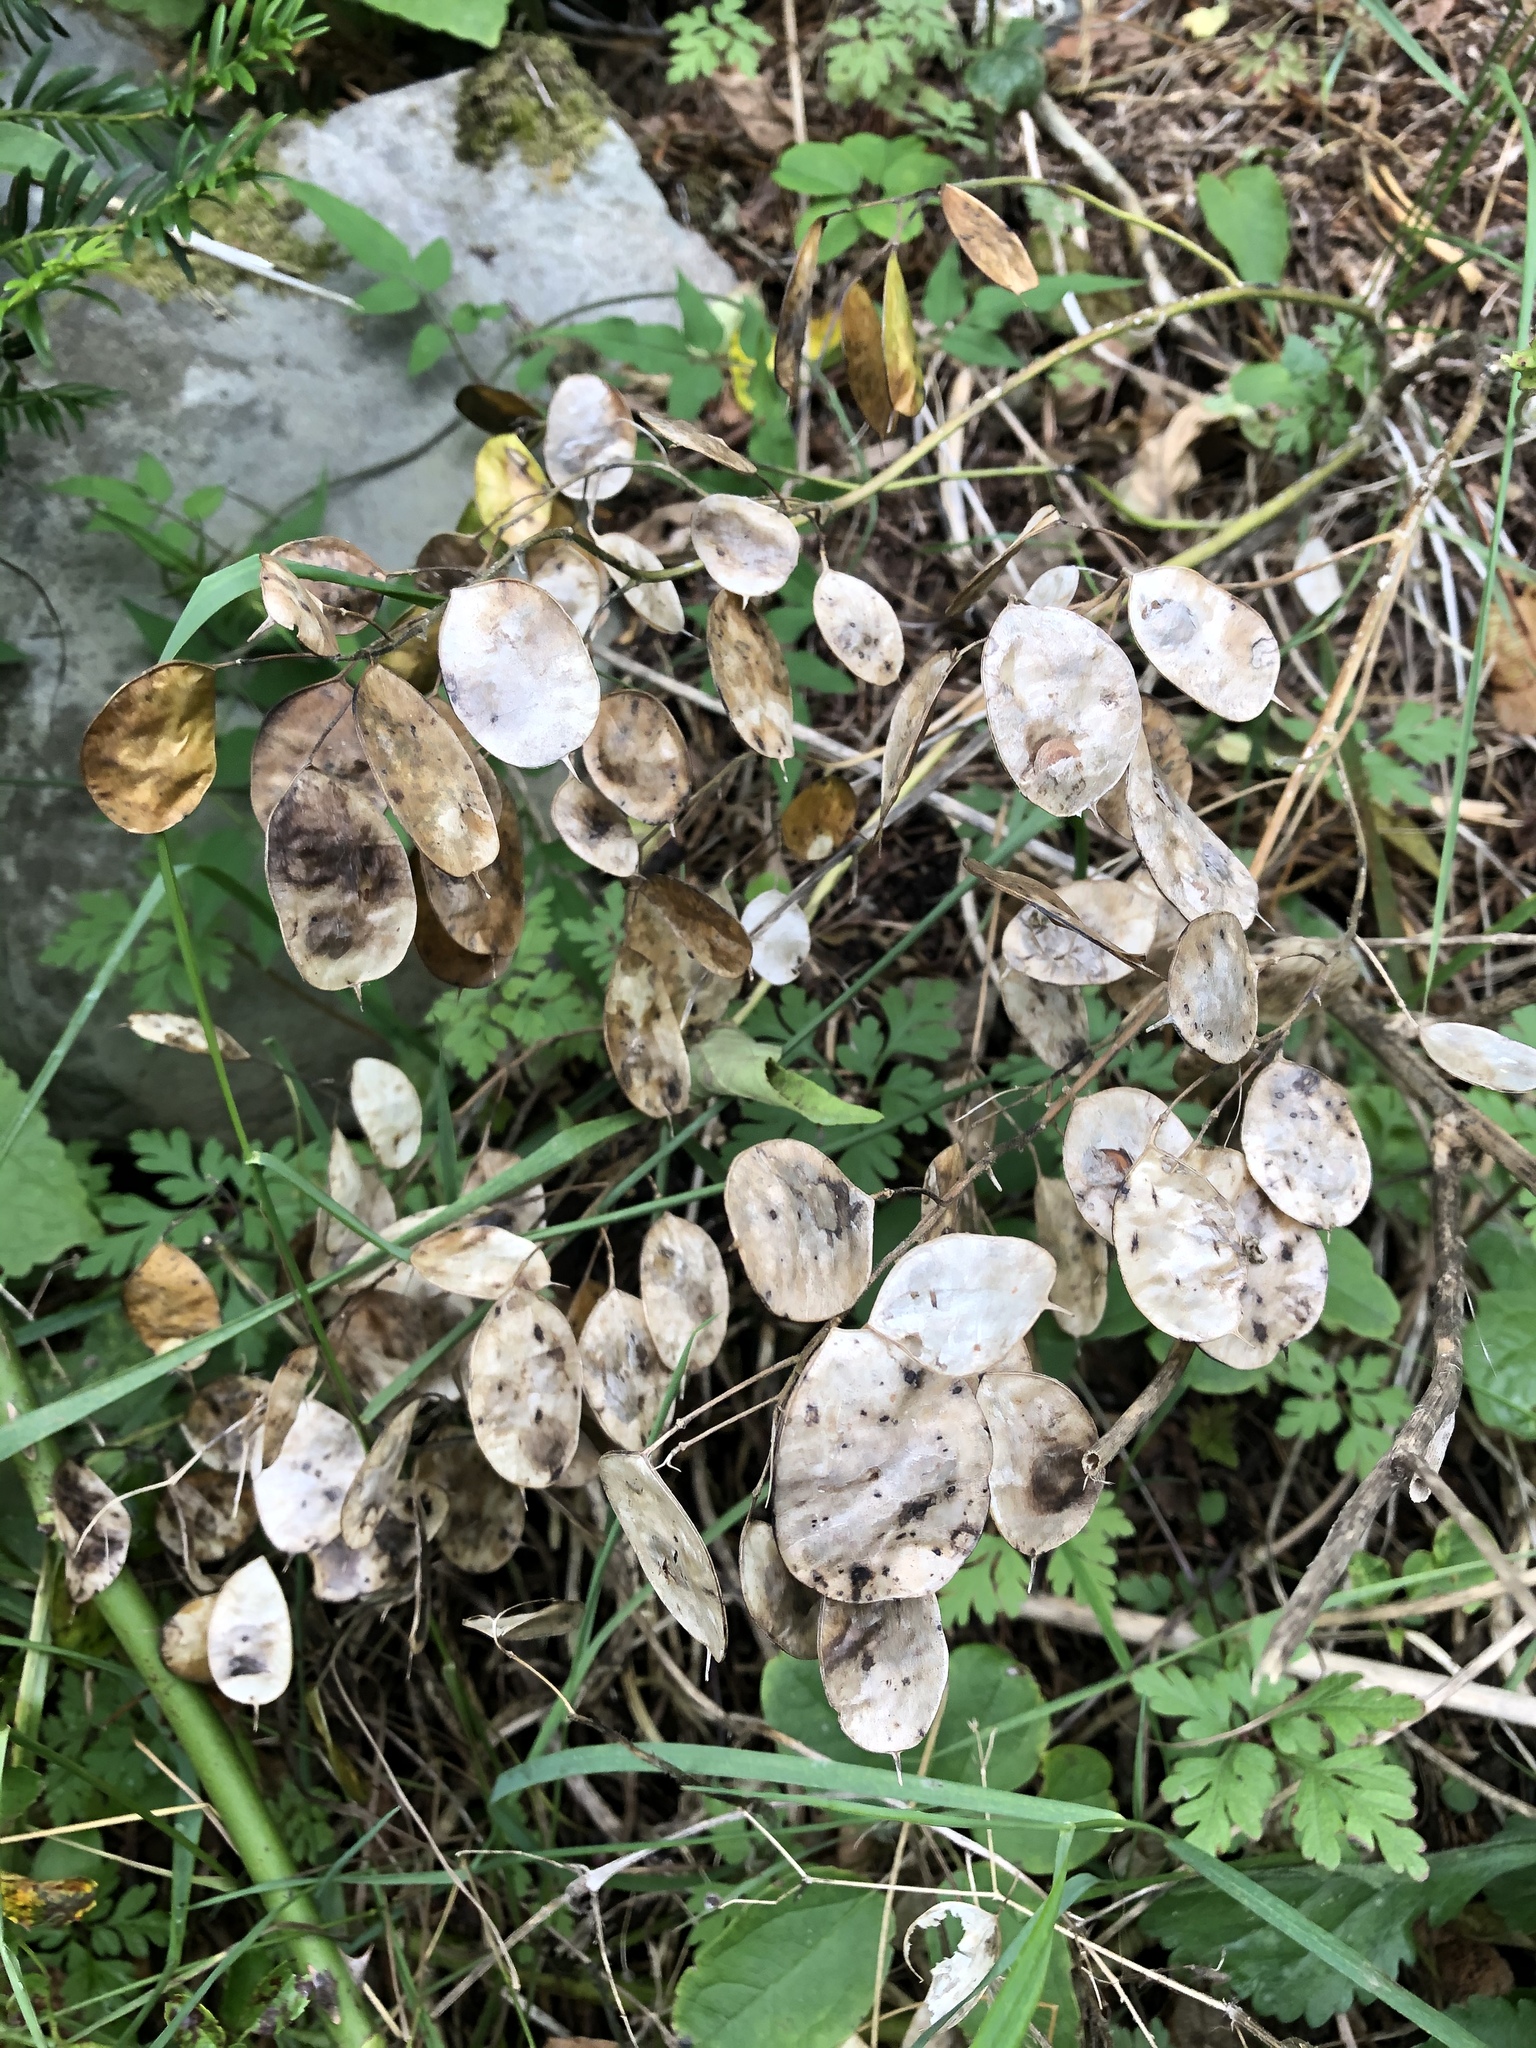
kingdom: Plantae
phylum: Tracheophyta
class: Magnoliopsida
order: Brassicales
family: Brassicaceae
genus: Lunaria
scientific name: Lunaria annua
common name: Honesty
